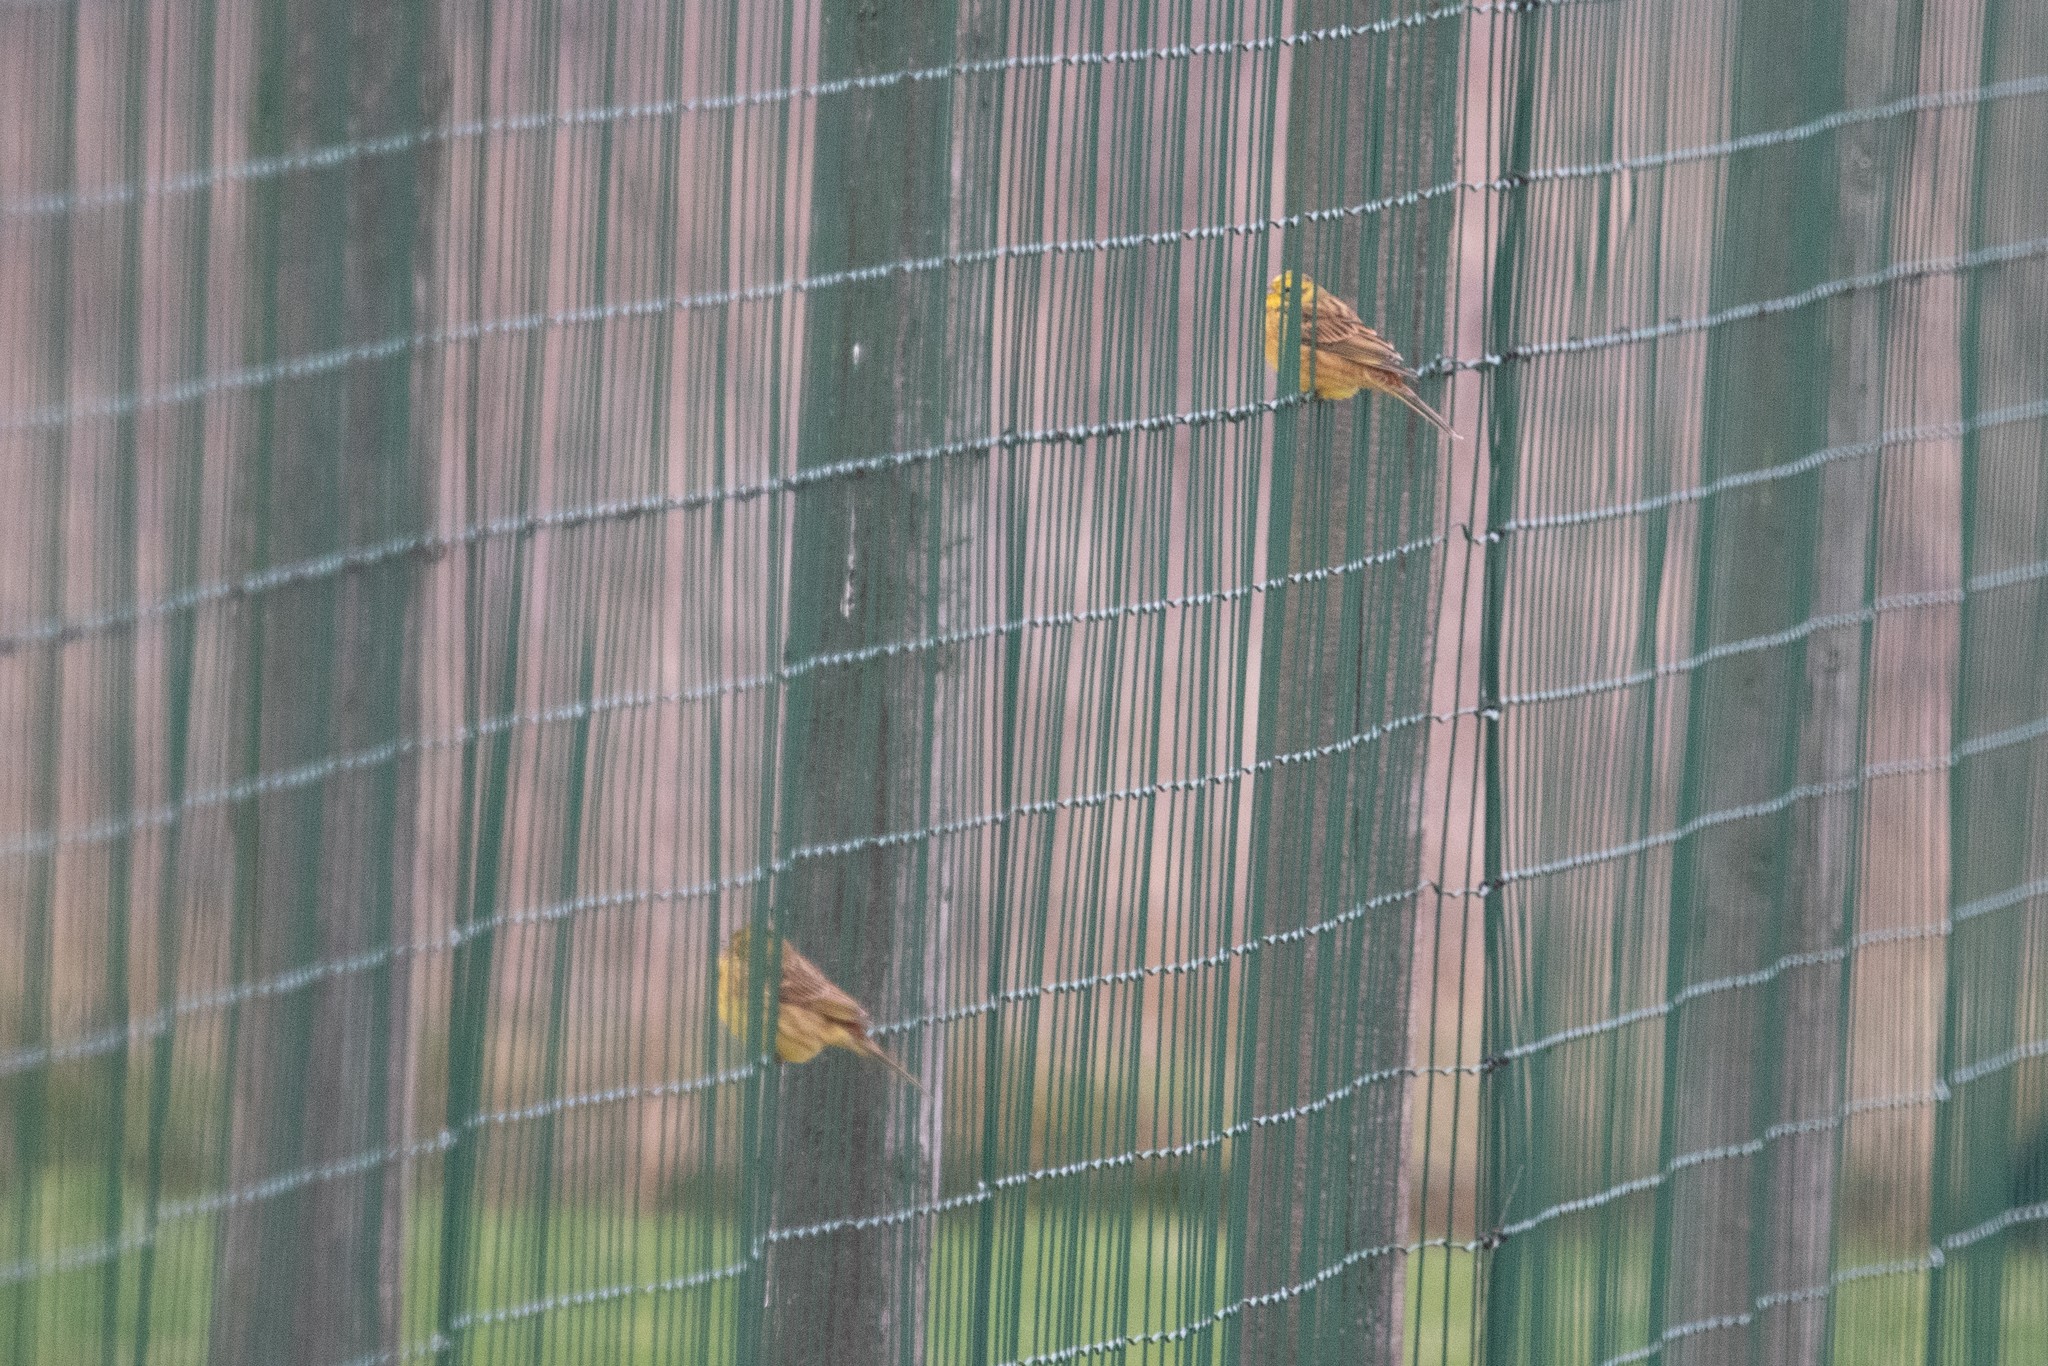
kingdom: Animalia
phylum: Chordata
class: Aves
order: Passeriformes
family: Emberizidae
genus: Emberiza
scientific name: Emberiza citrinella
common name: Yellowhammer
